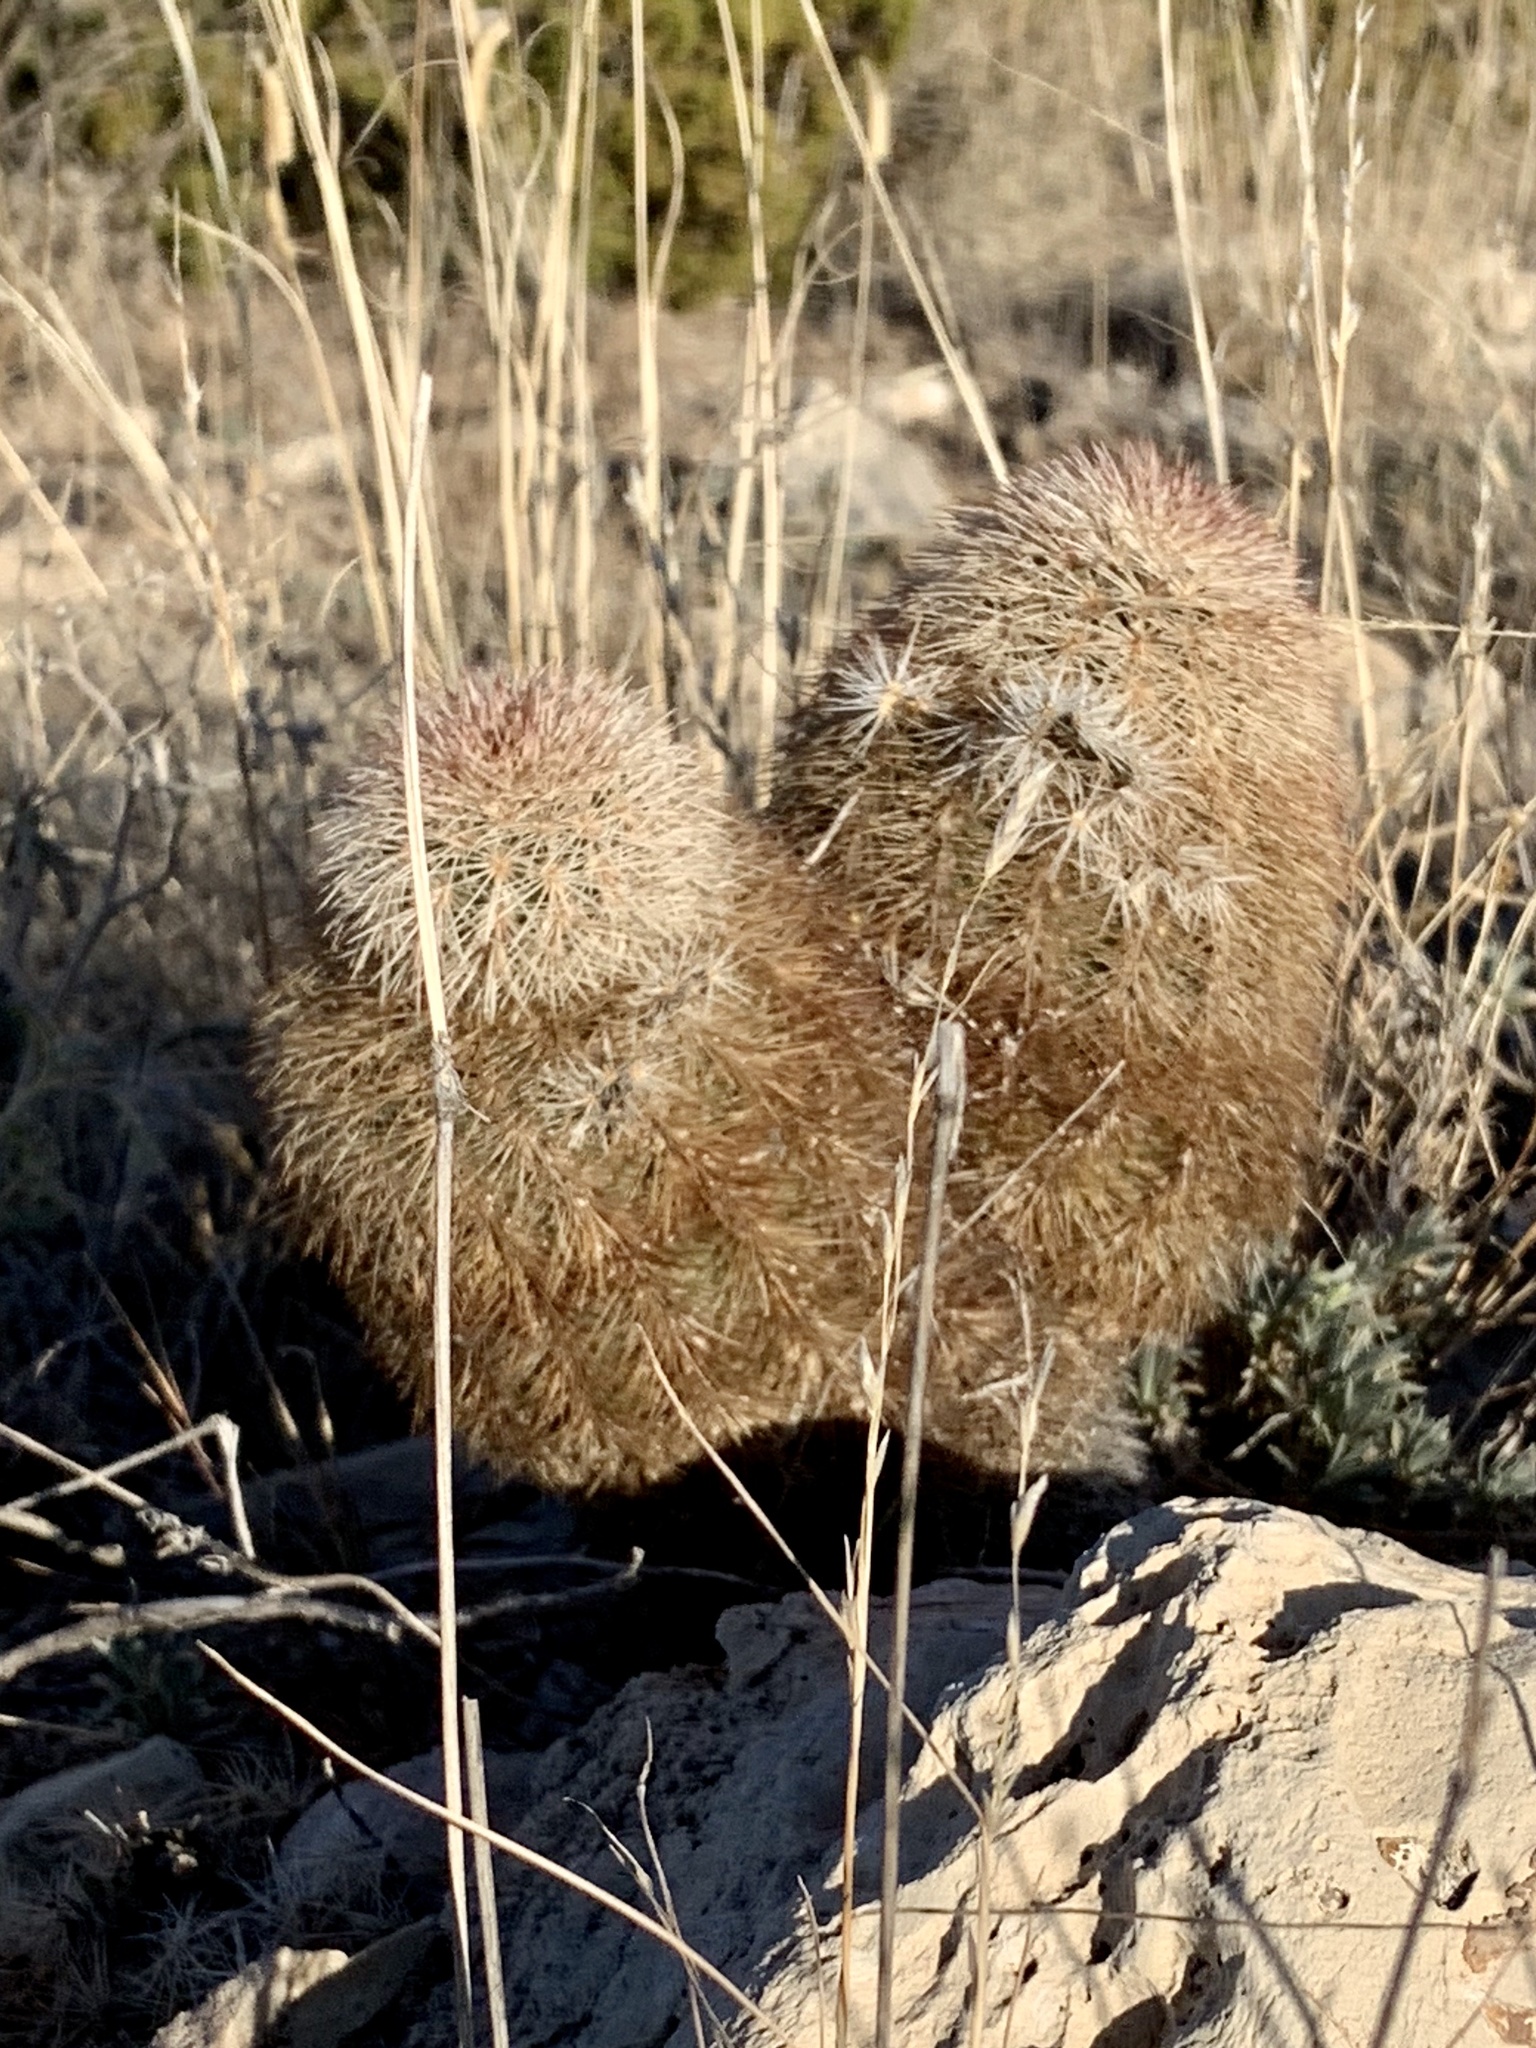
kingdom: Plantae
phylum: Tracheophyta
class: Magnoliopsida
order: Caryophyllales
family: Cactaceae
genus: Echinocereus
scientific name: Echinocereus dasyacanthus
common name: Spiny hedgehog cactus
